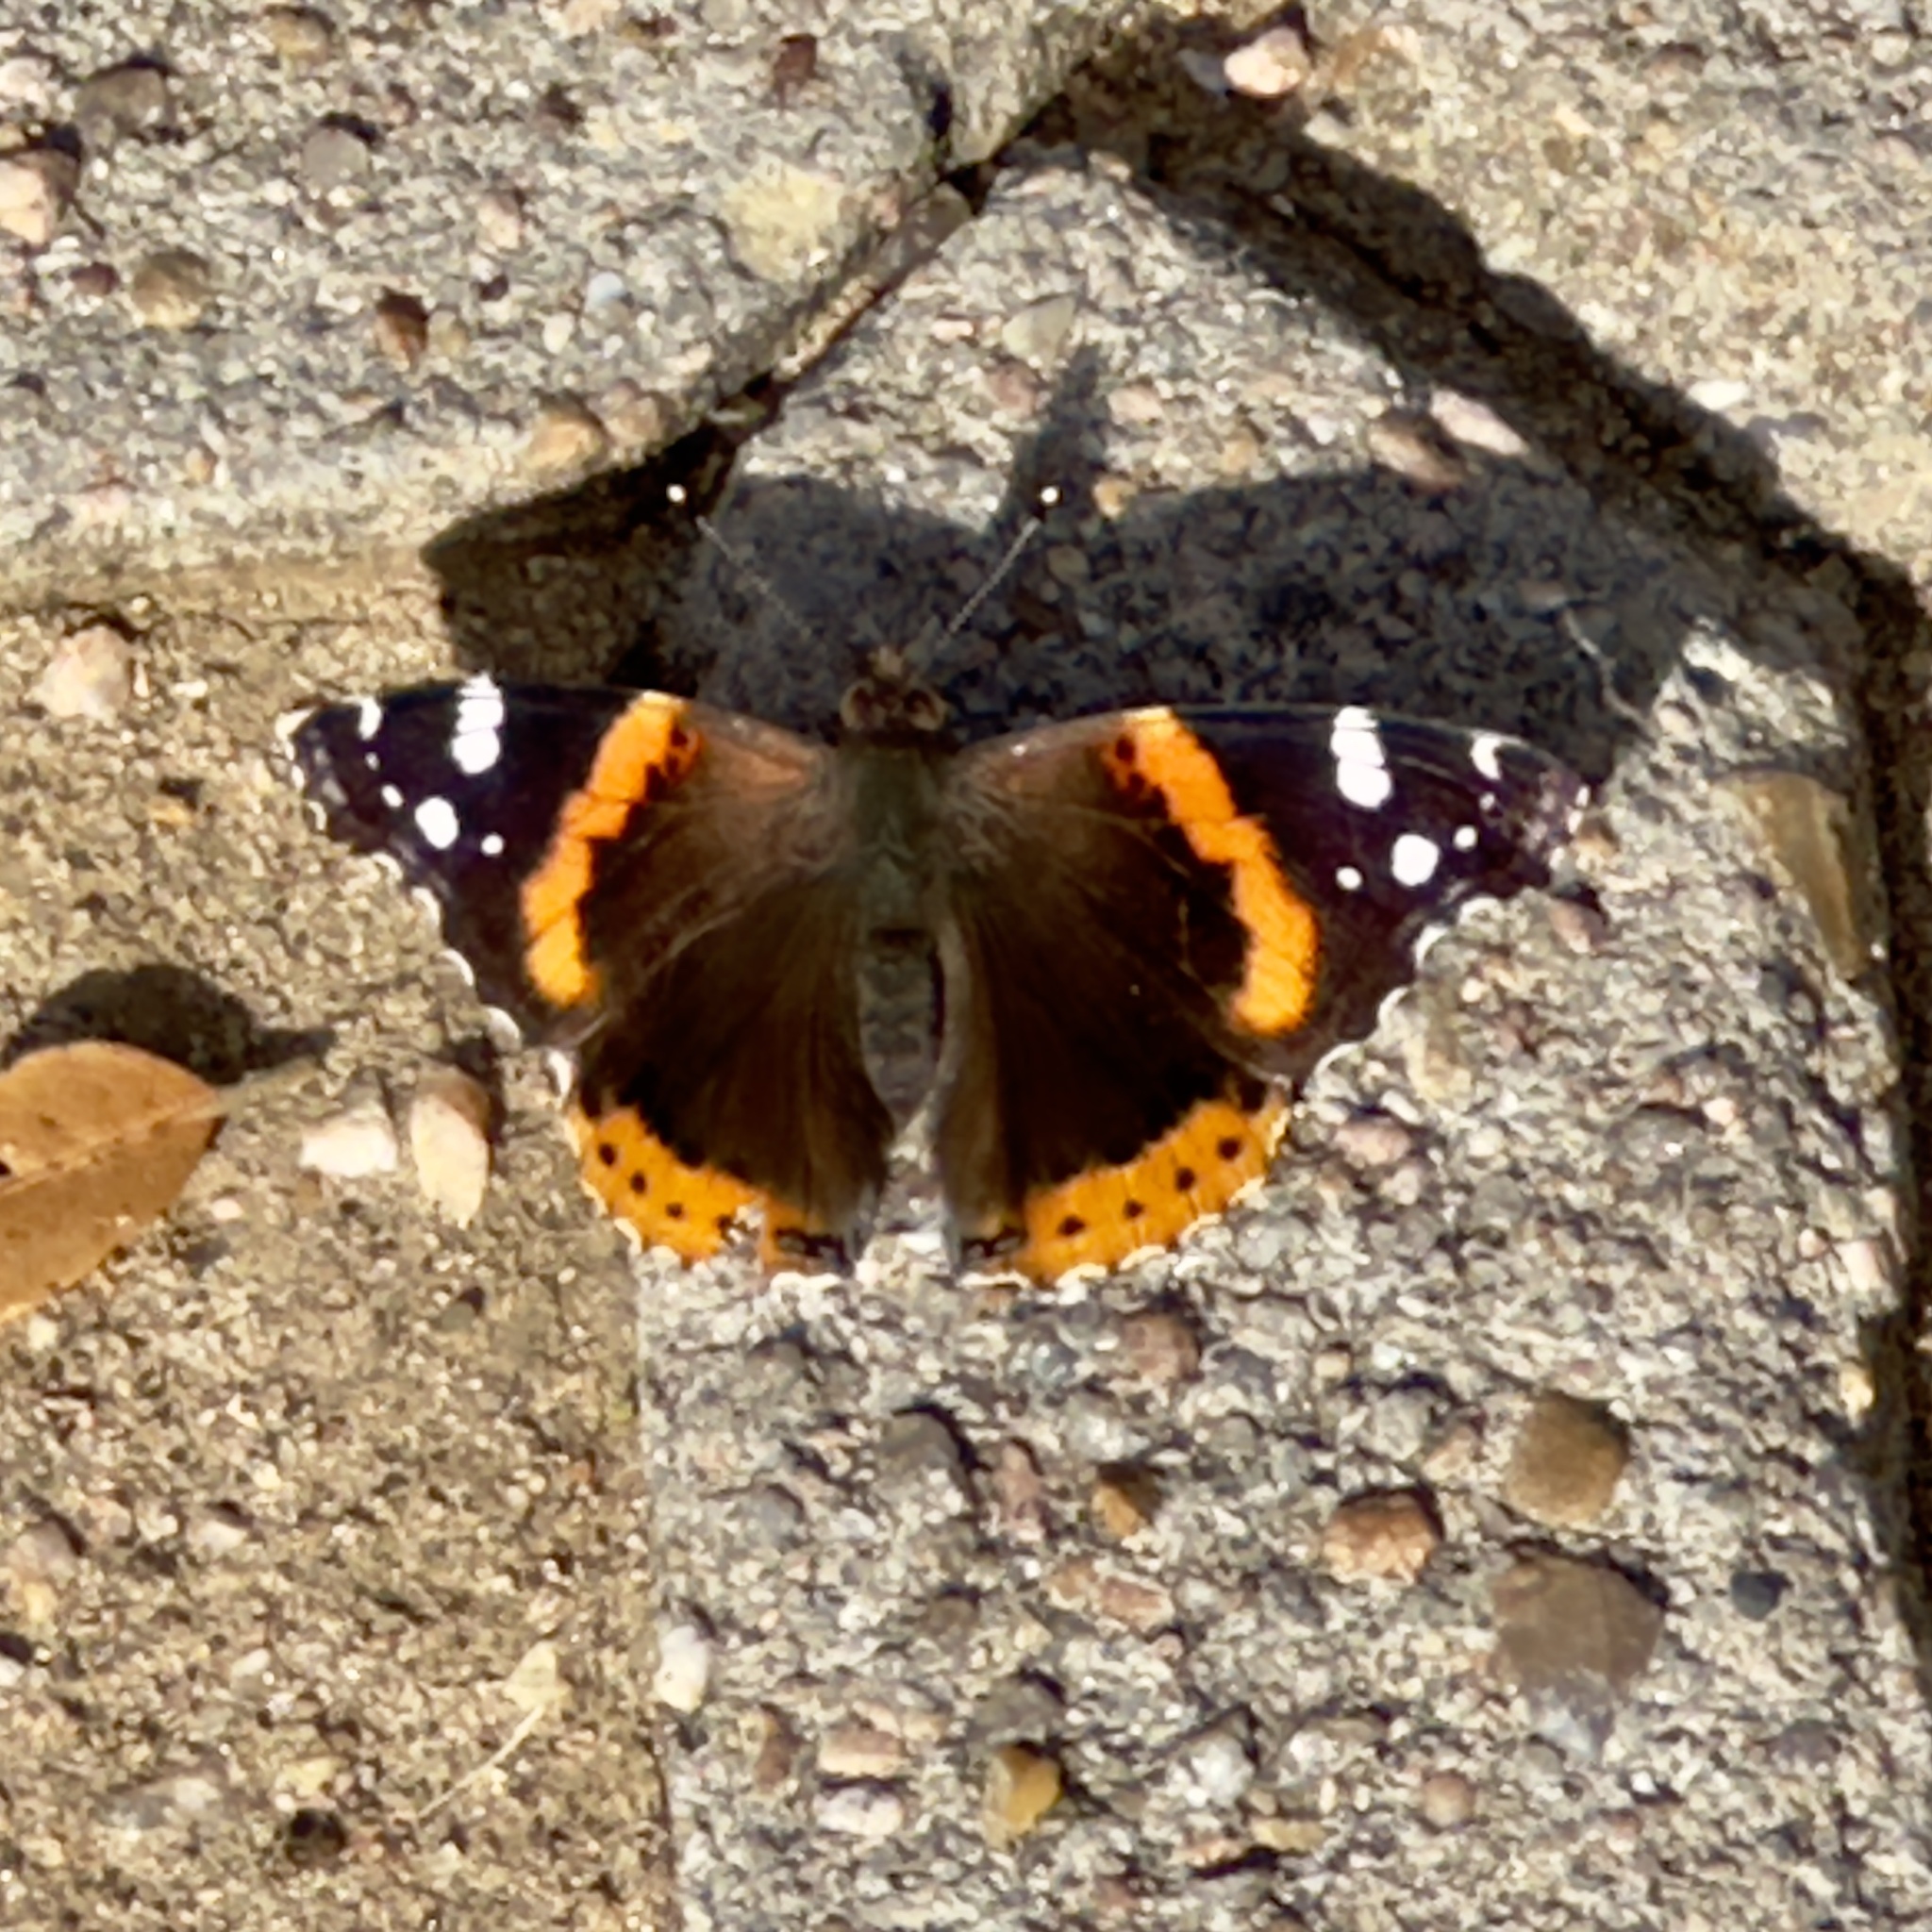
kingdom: Animalia
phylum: Arthropoda
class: Insecta
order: Lepidoptera
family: Nymphalidae
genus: Vanessa
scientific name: Vanessa atalanta
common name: Red admiral
